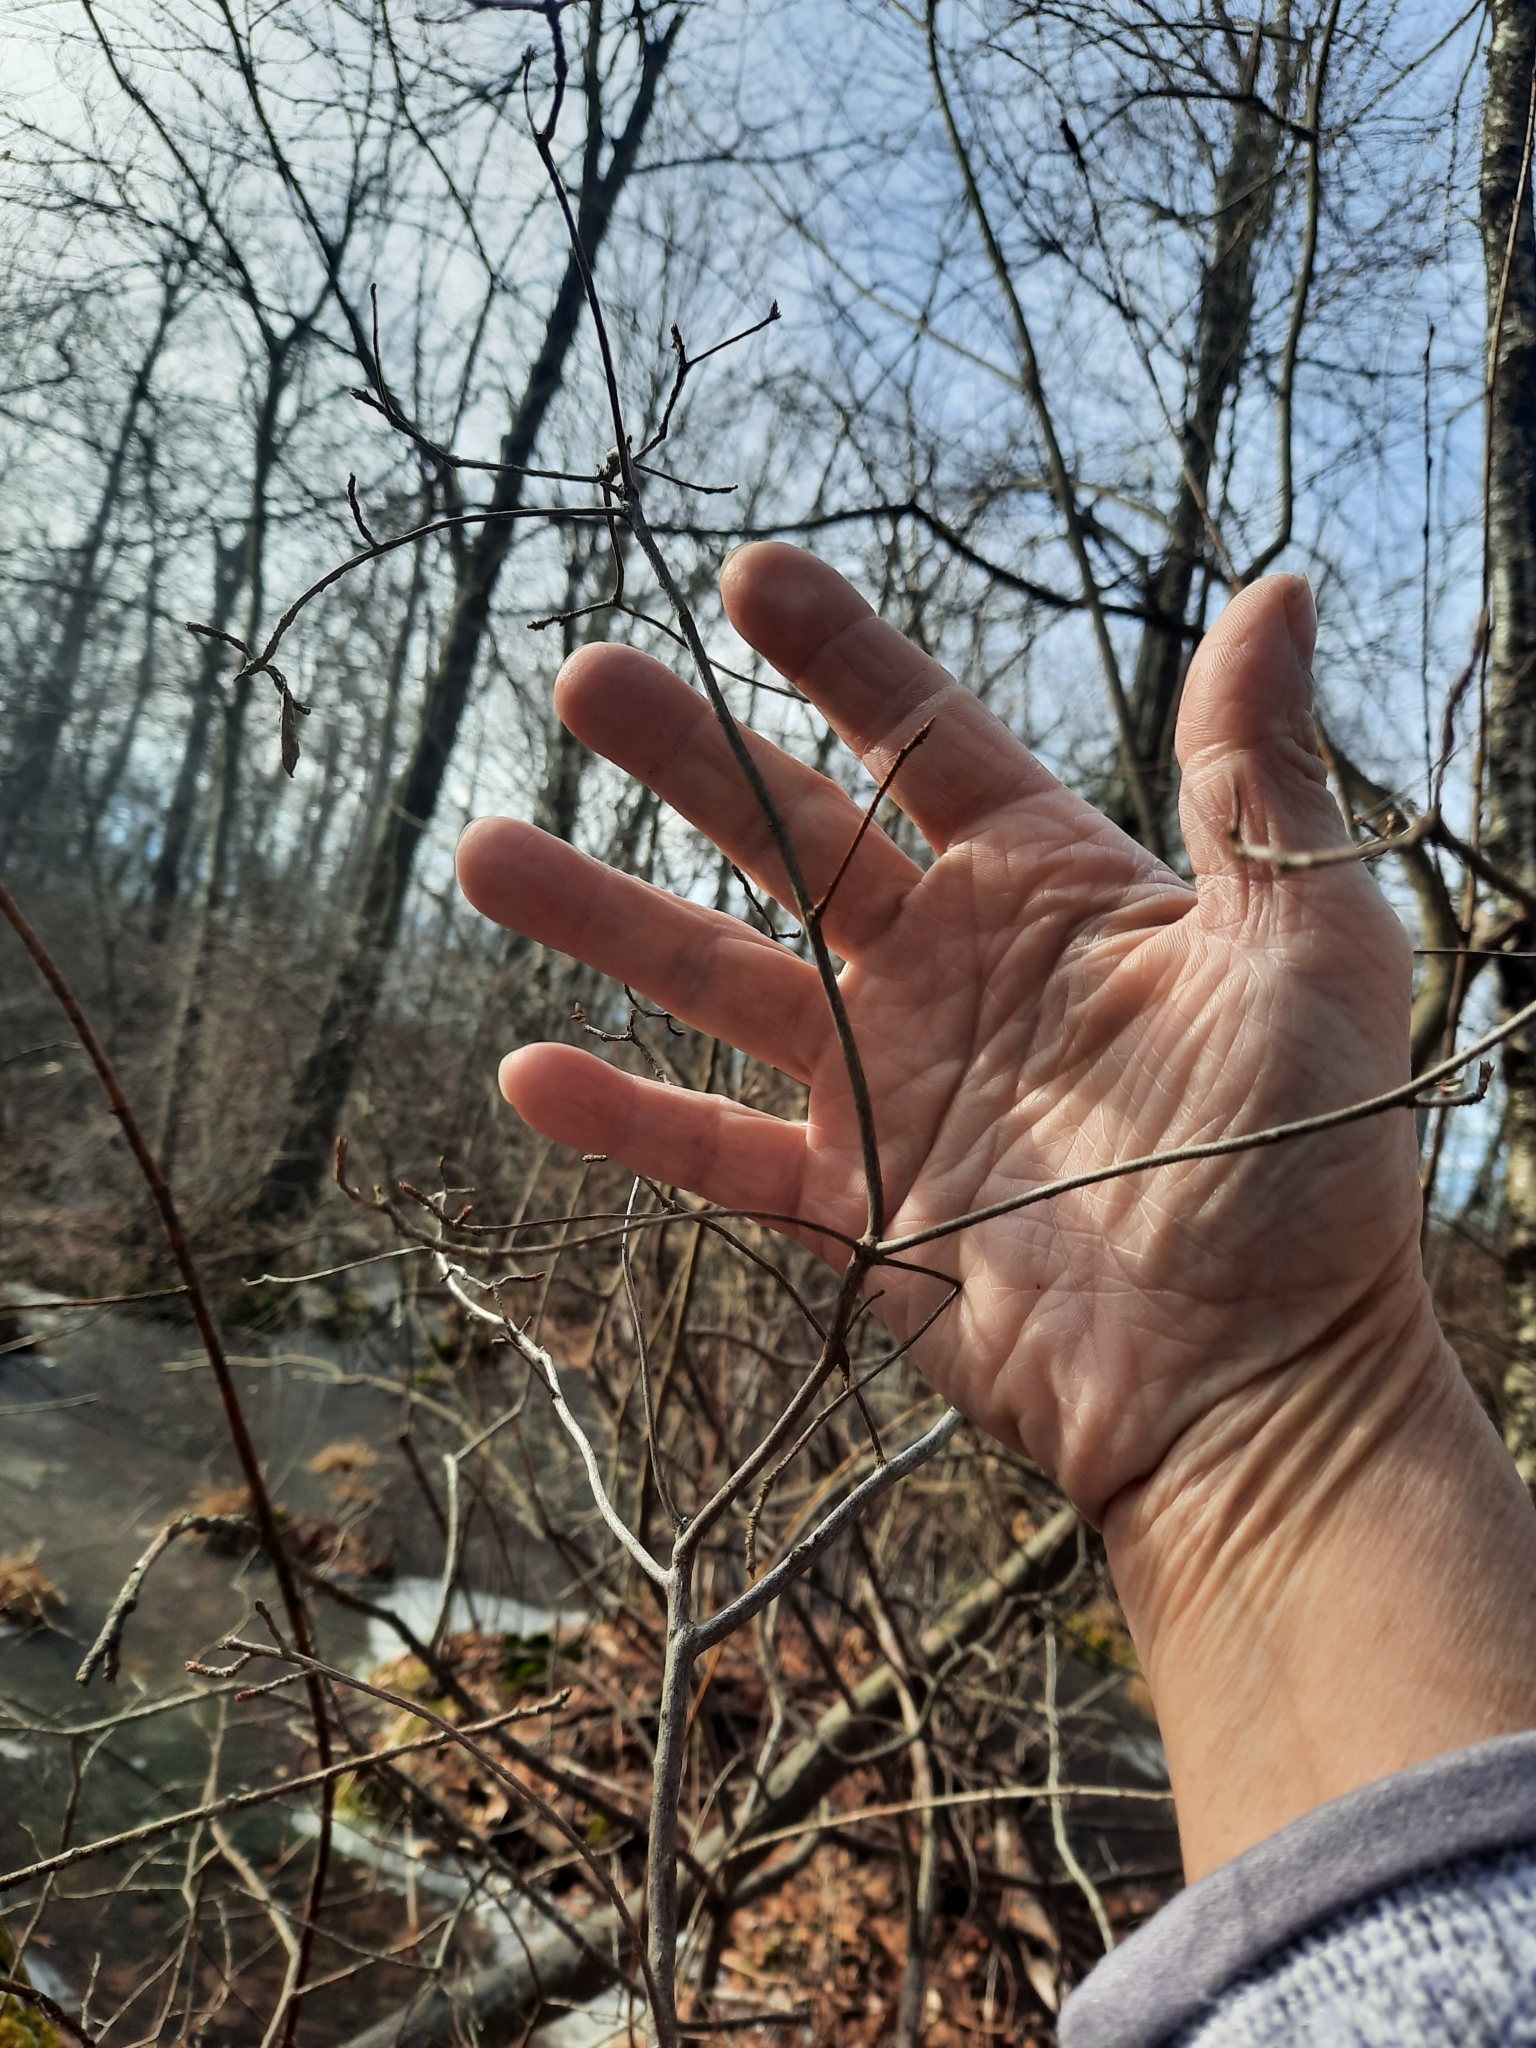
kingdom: Plantae
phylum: Tracheophyta
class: Magnoliopsida
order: Fagales
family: Betulaceae
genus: Carpinus
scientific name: Carpinus caroliniana
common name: American hornbeam
